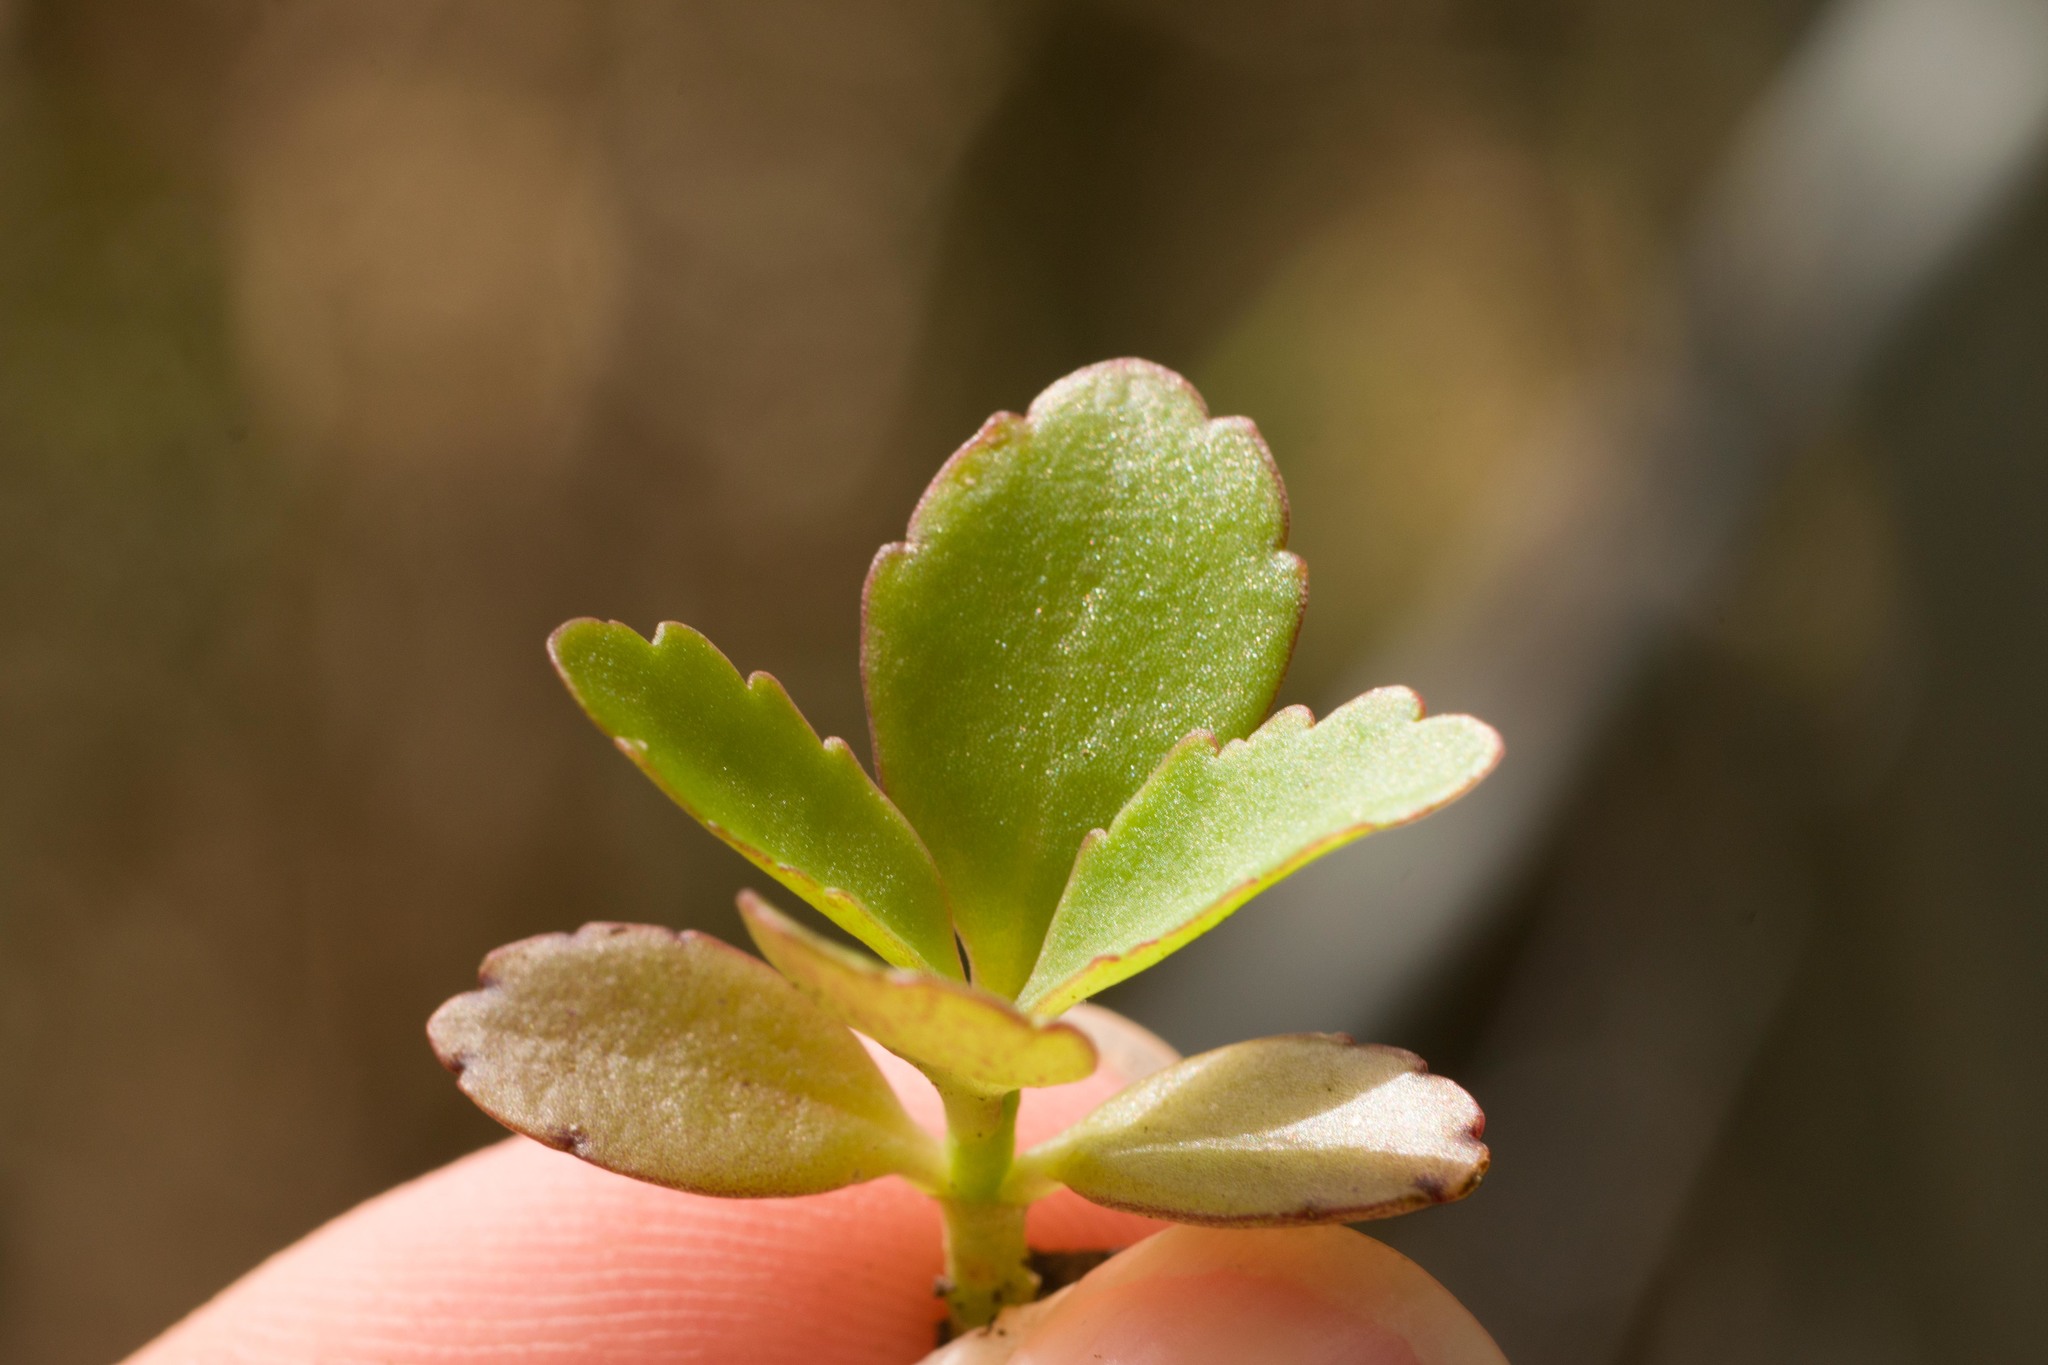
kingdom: Plantae
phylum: Tracheophyta
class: Magnoliopsida
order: Saxifragales
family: Crassulaceae
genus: Kalanchoe
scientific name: Kalanchoe pinnata
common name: Cathedral bells
